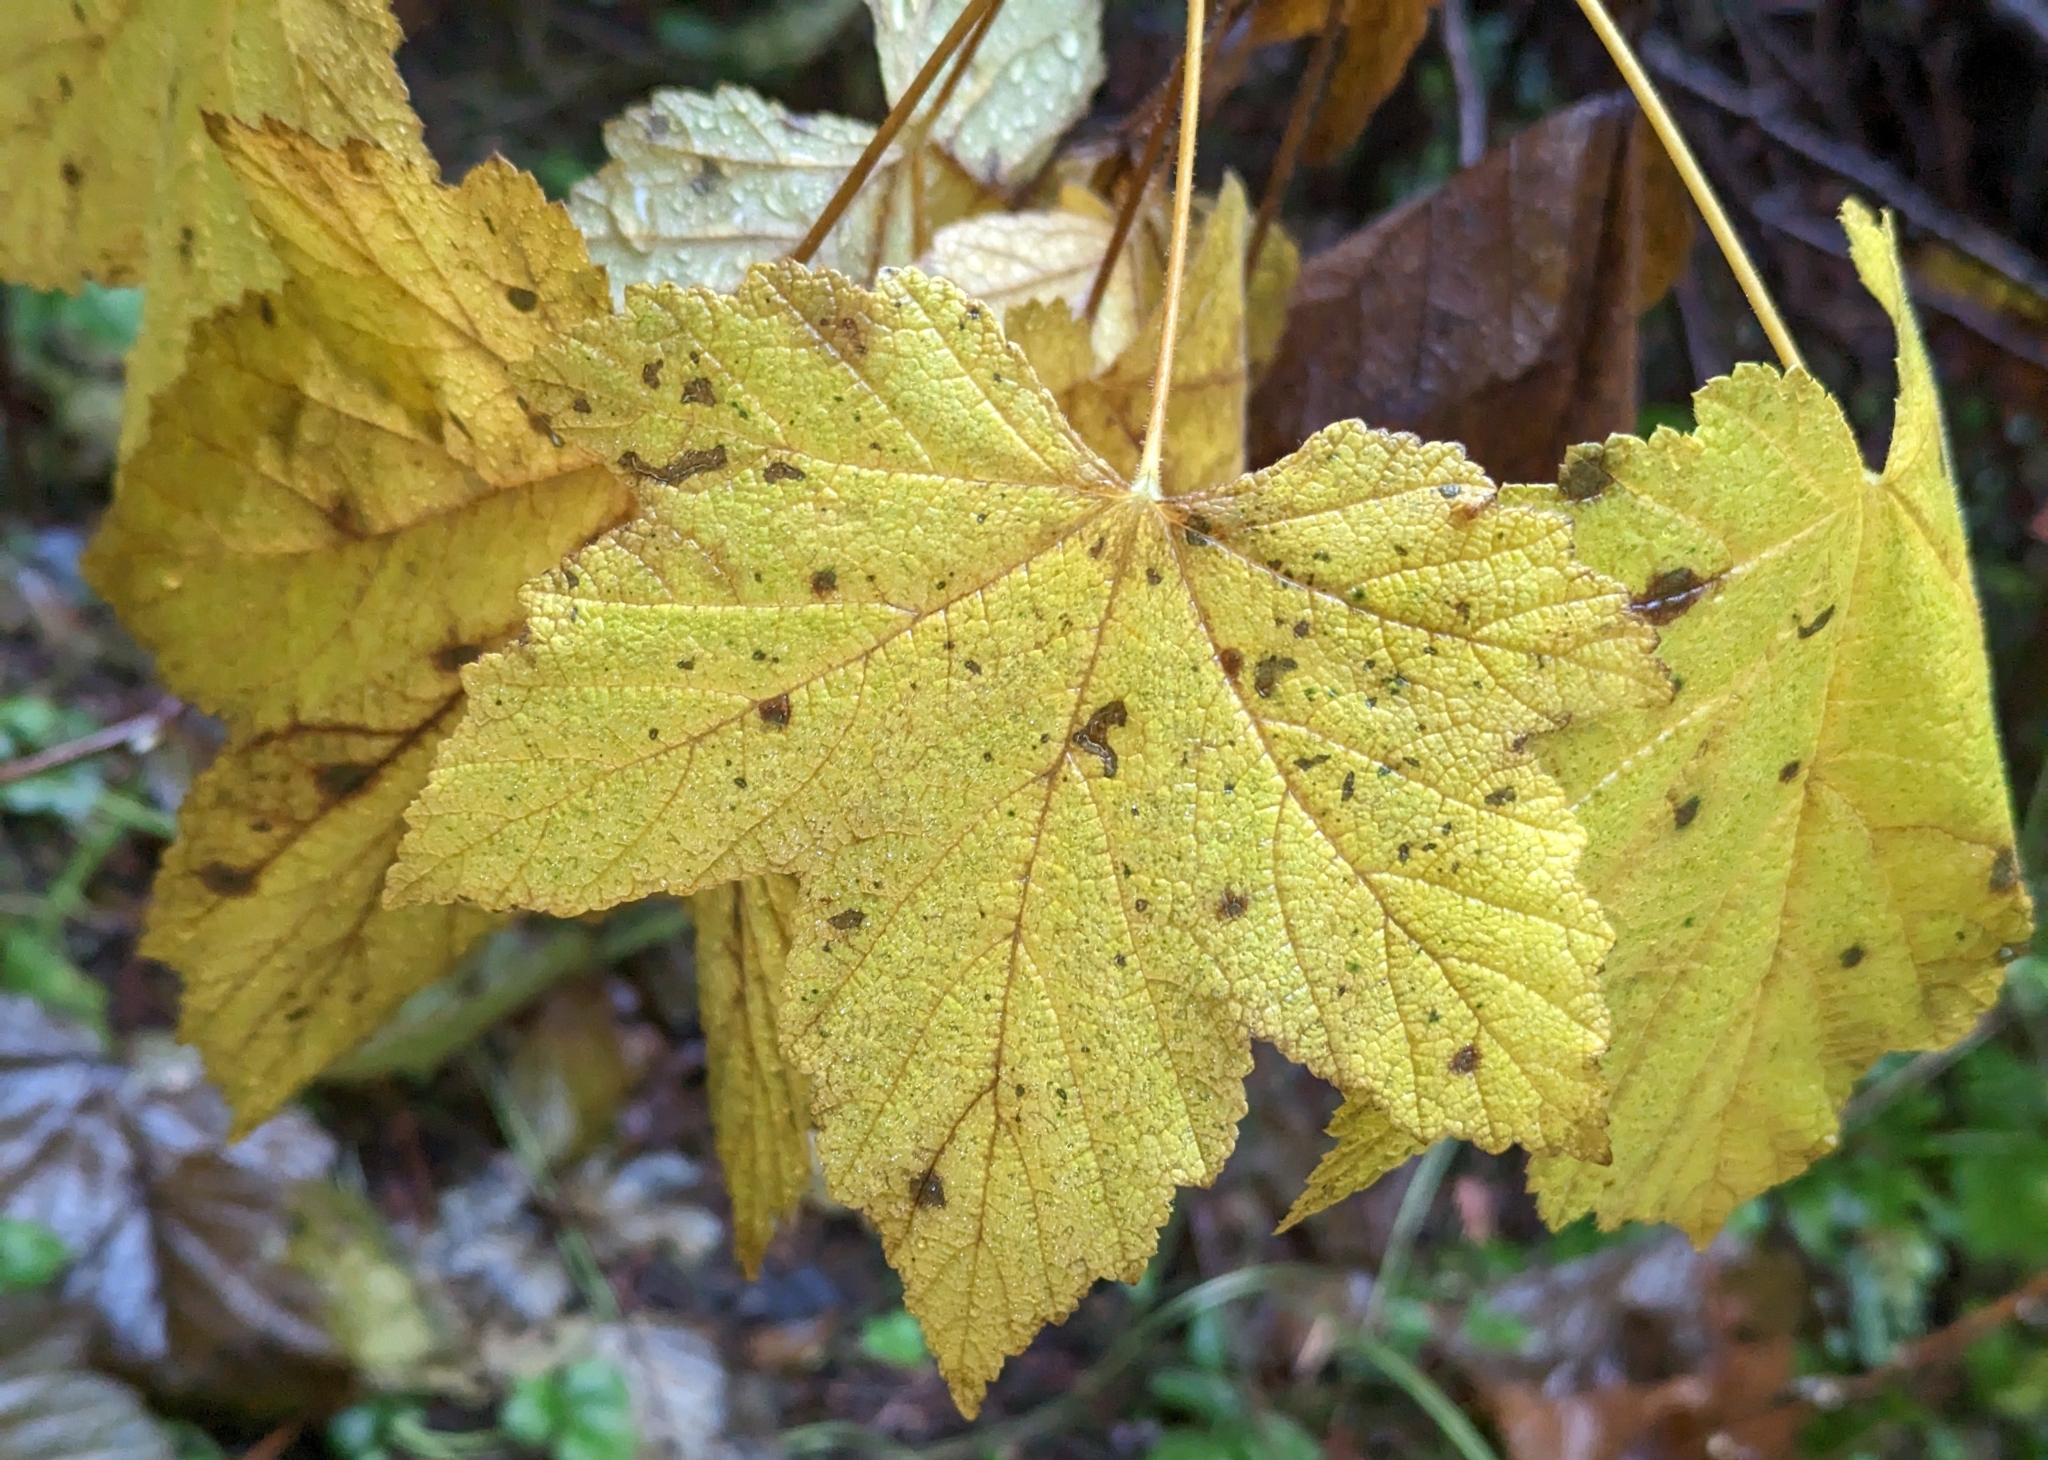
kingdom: Plantae
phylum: Tracheophyta
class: Magnoliopsida
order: Rosales
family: Rosaceae
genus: Rubus
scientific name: Rubus parviflorus
